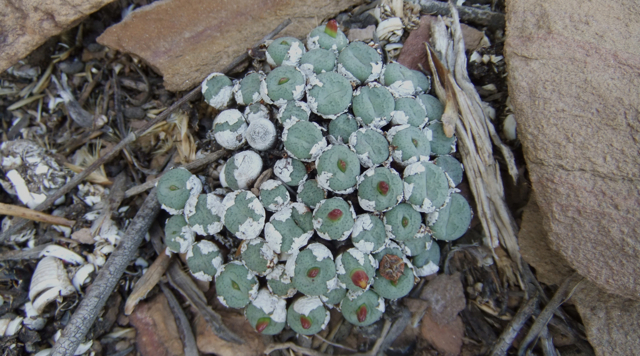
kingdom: Plantae
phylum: Tracheophyta
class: Magnoliopsida
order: Caryophyllales
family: Aizoaceae
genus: Conophytum
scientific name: Conophytum truncatum
